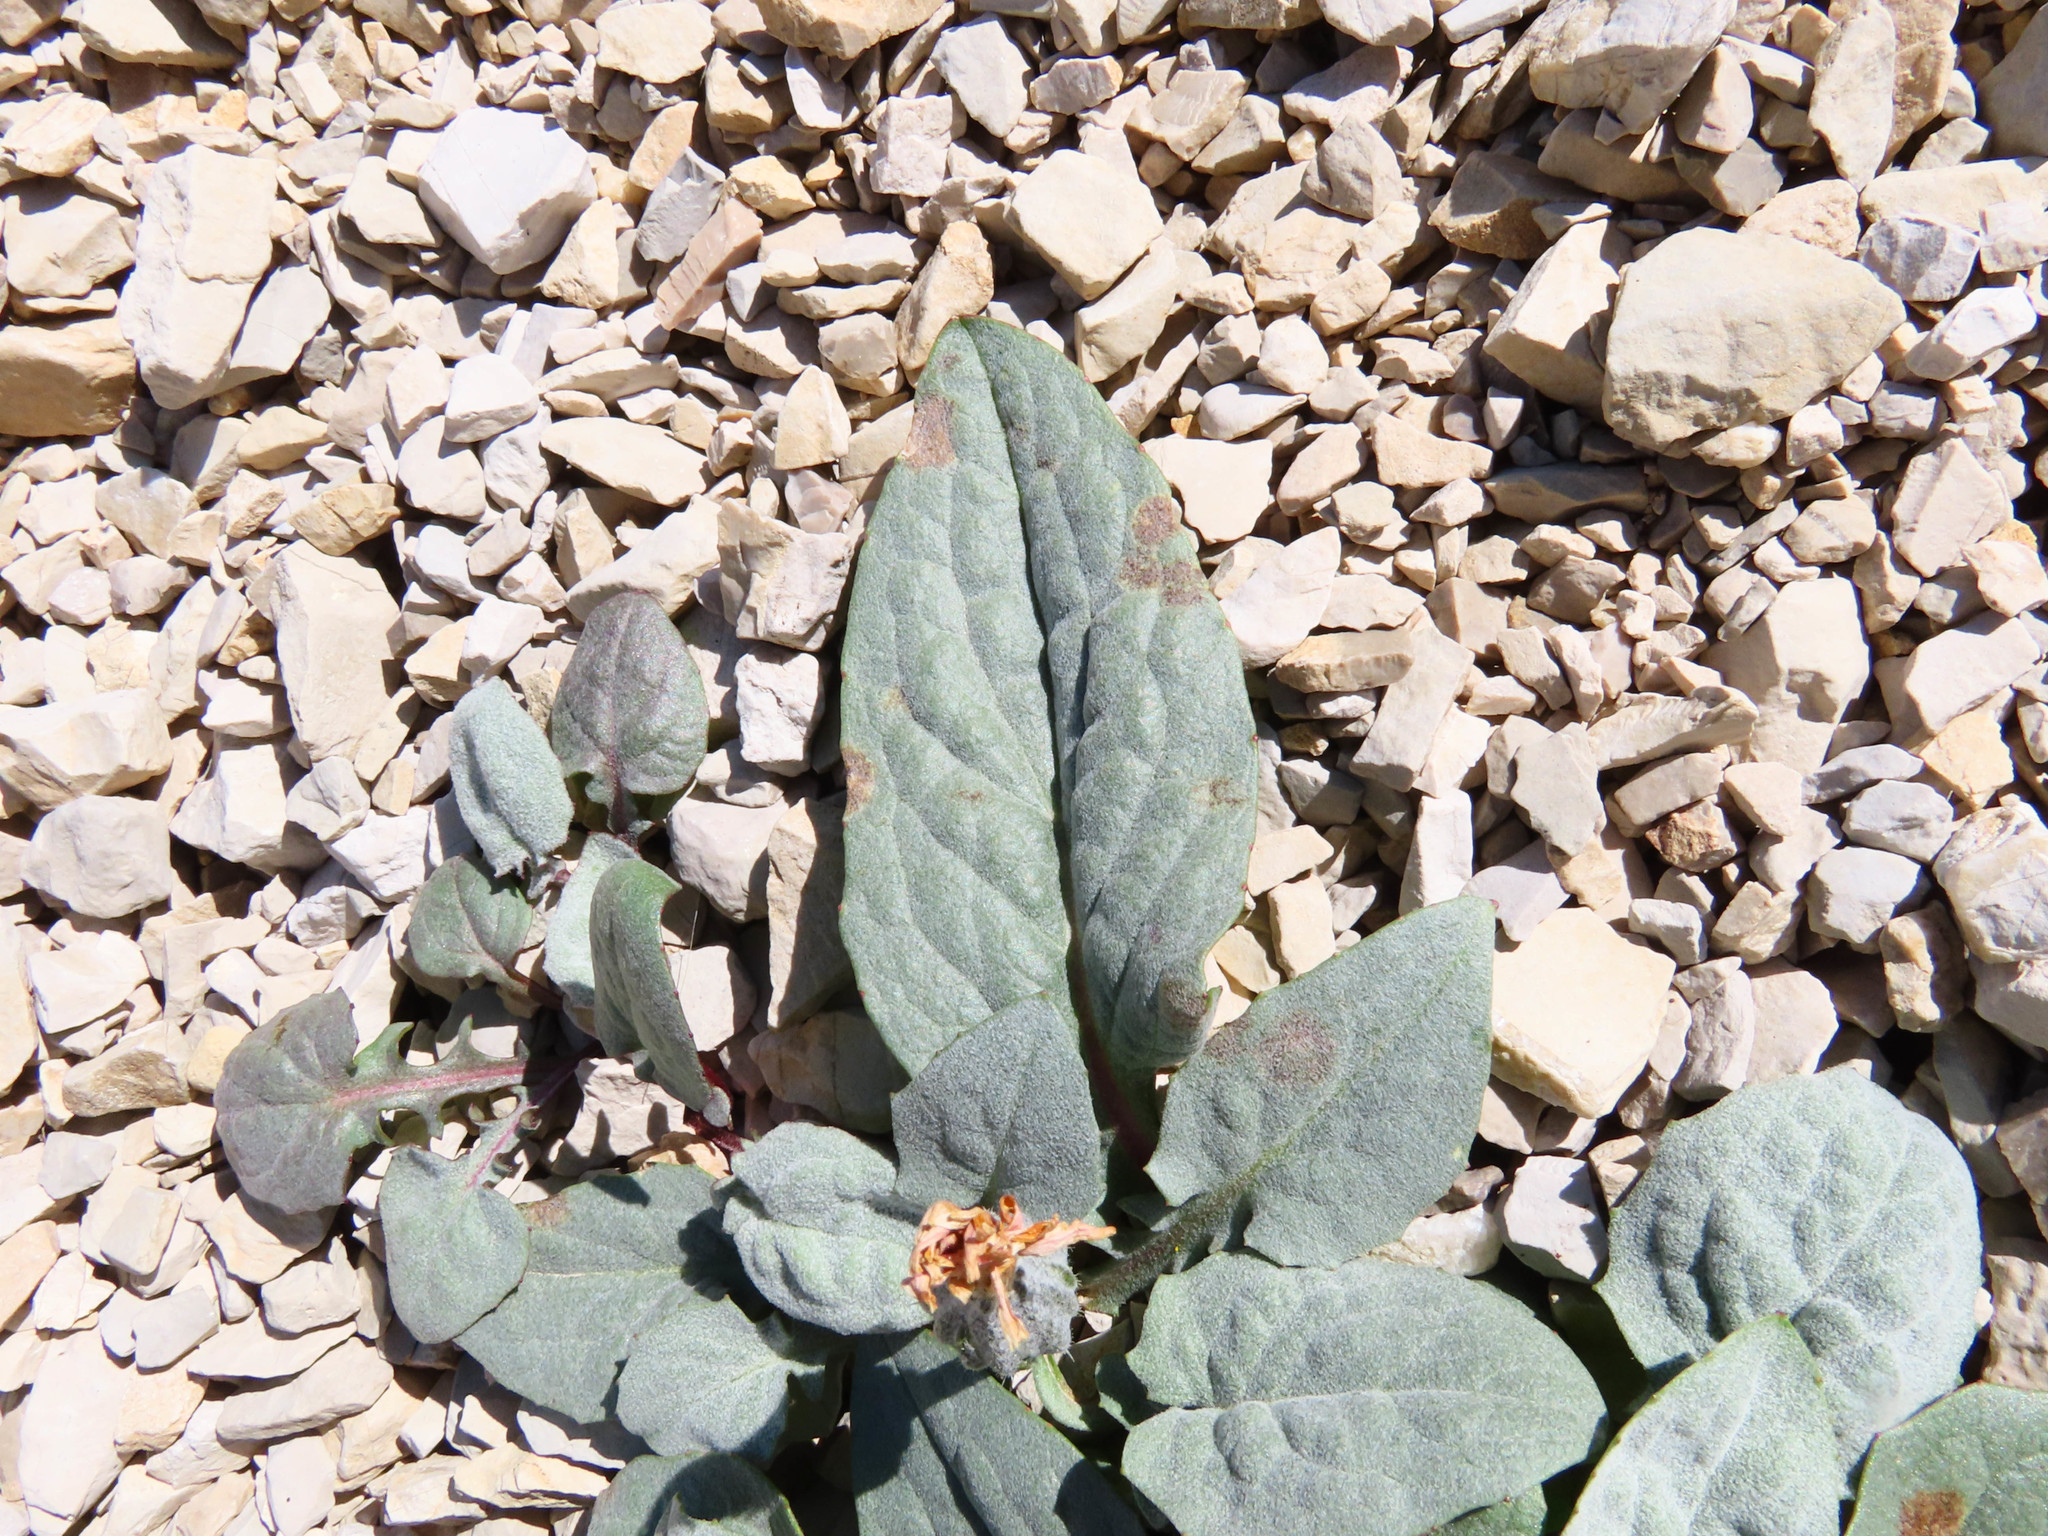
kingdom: Plantae
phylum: Tracheophyta
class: Magnoliopsida
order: Asterales
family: Asteraceae
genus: Crepis
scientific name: Crepis pygmaea
